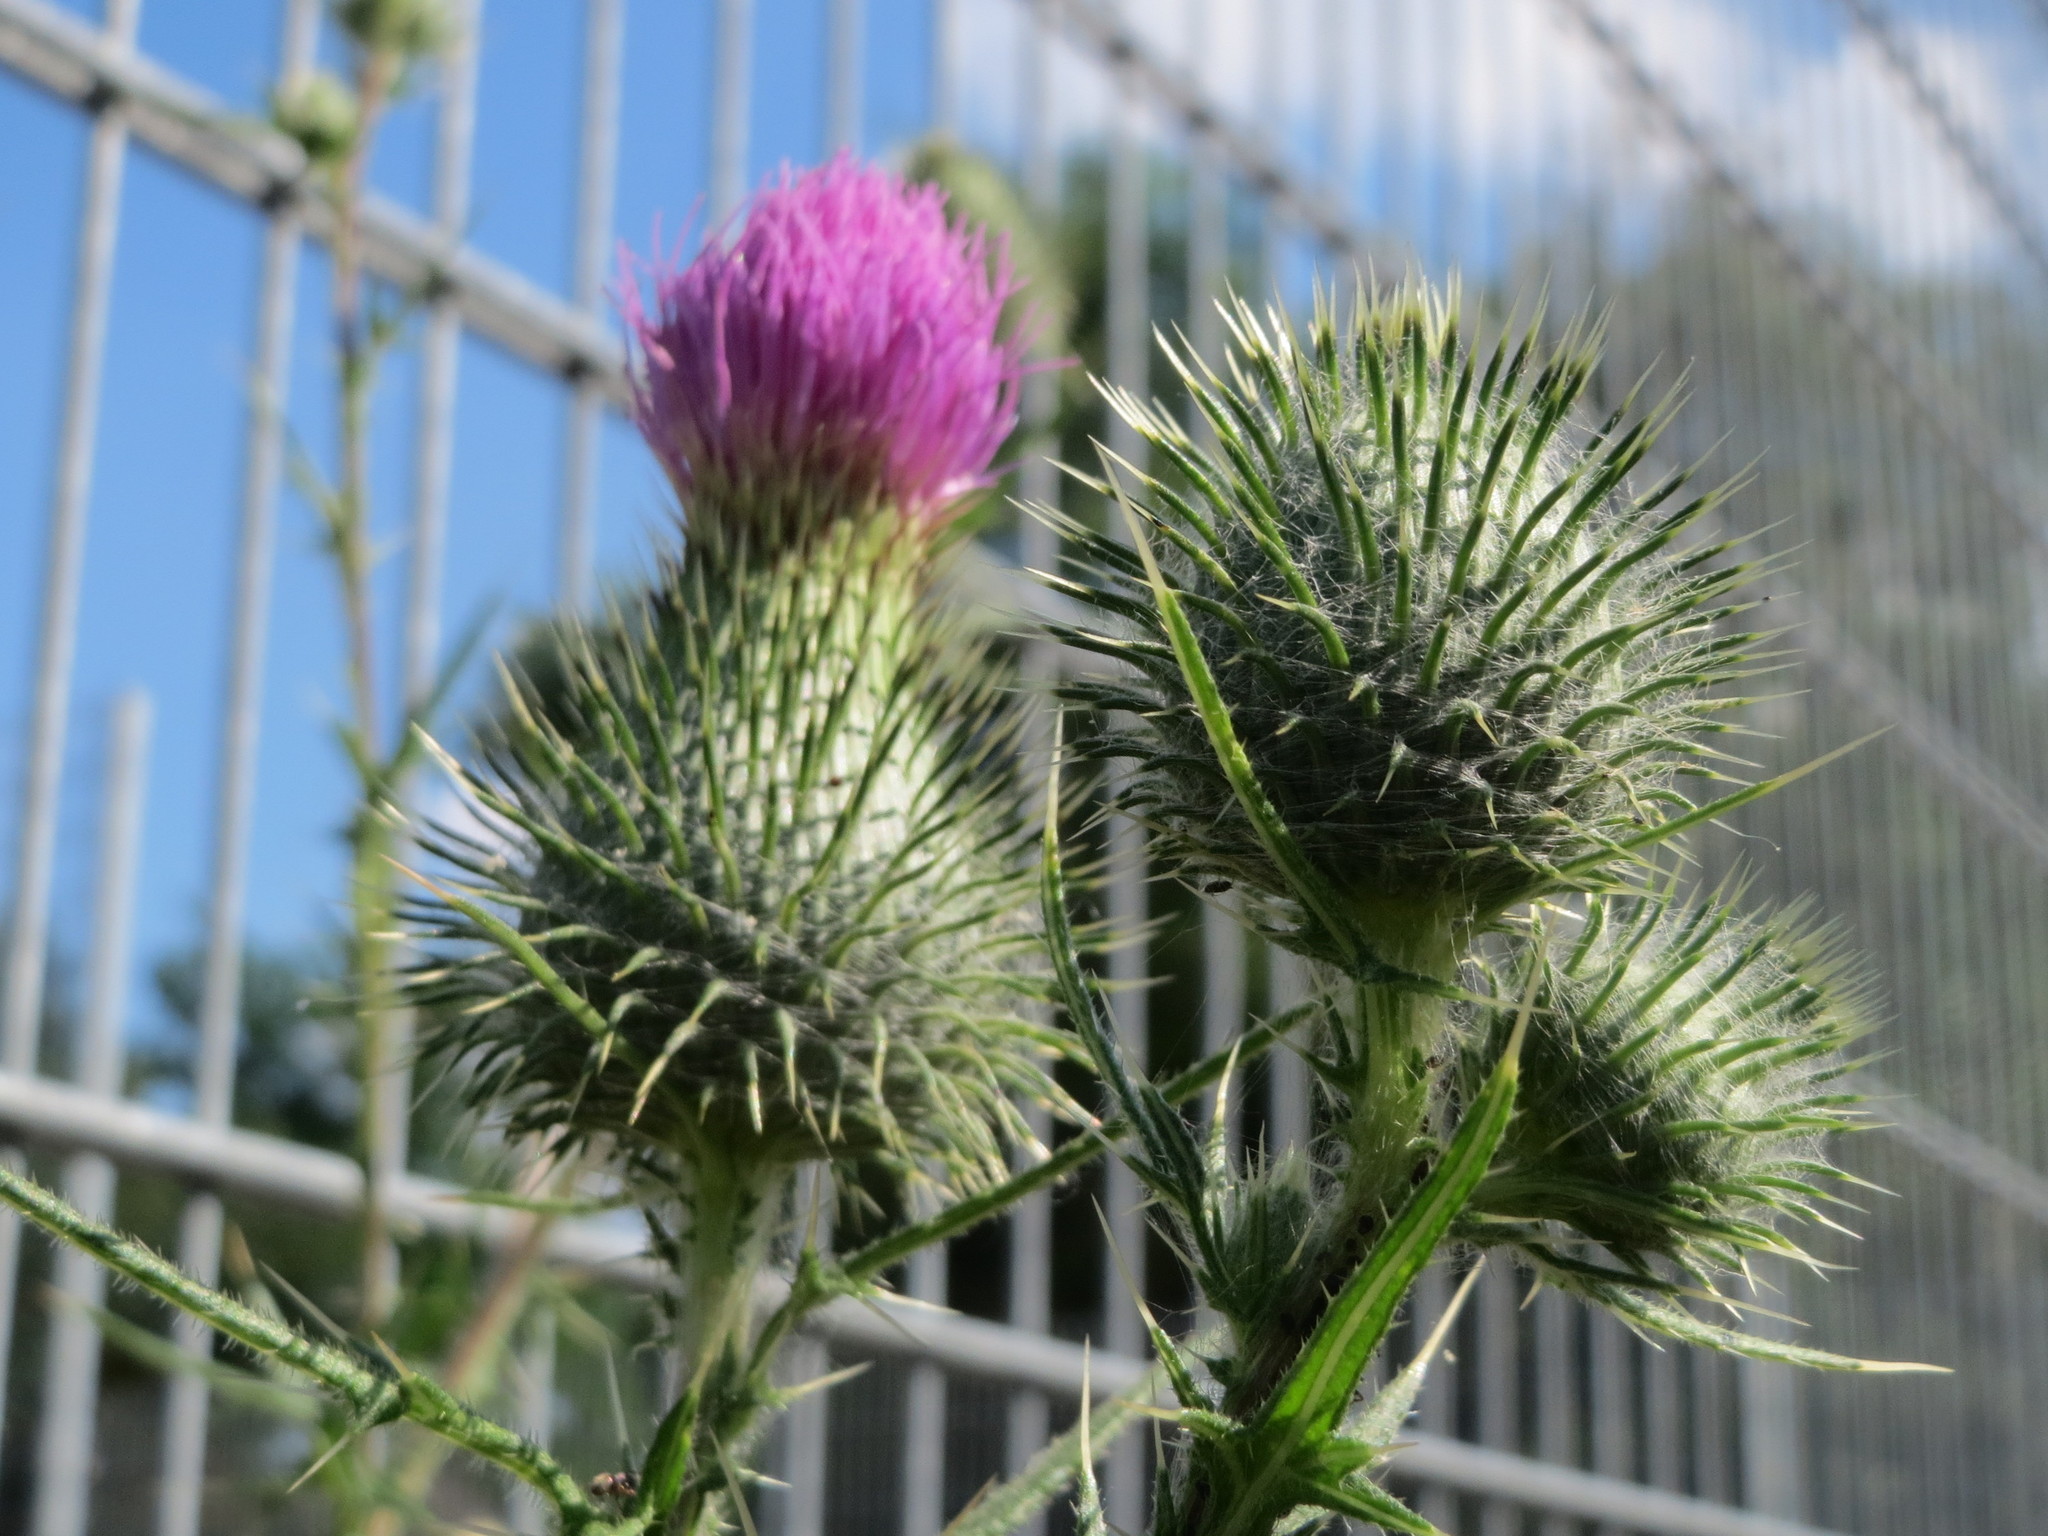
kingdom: Plantae
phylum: Tracheophyta
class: Magnoliopsida
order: Asterales
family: Asteraceae
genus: Cirsium
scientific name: Cirsium vulgare
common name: Bull thistle
